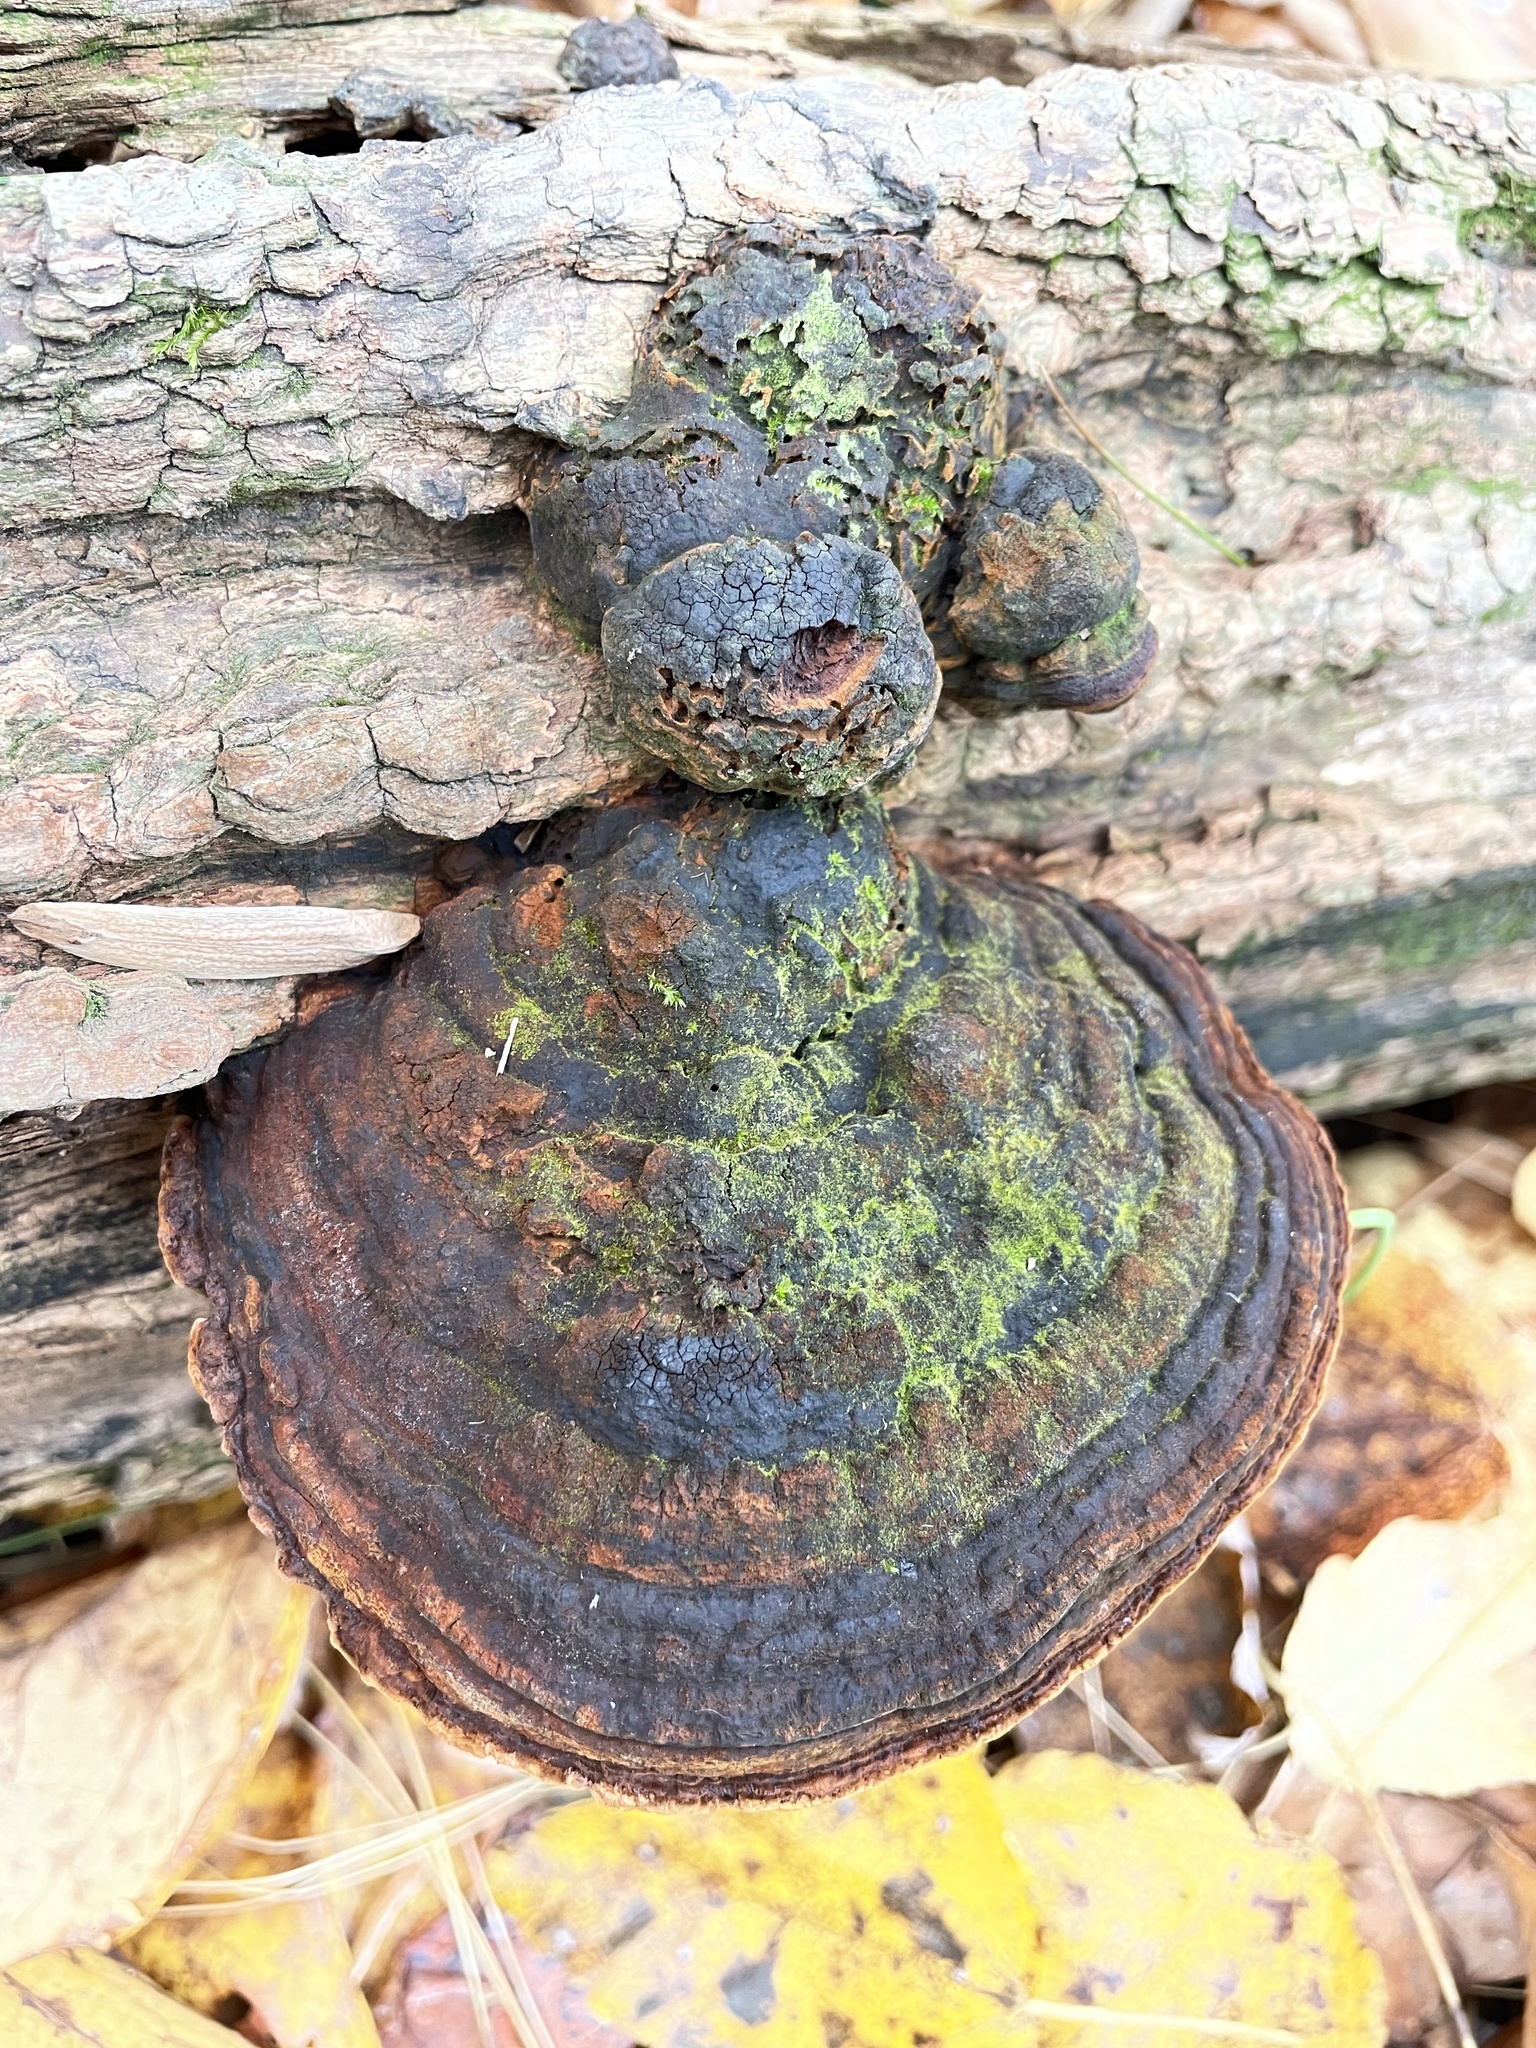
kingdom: Fungi
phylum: Basidiomycota
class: Agaricomycetes
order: Hymenochaetales
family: Hymenochaetaceae
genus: Phellinus
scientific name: Phellinus robiniae
